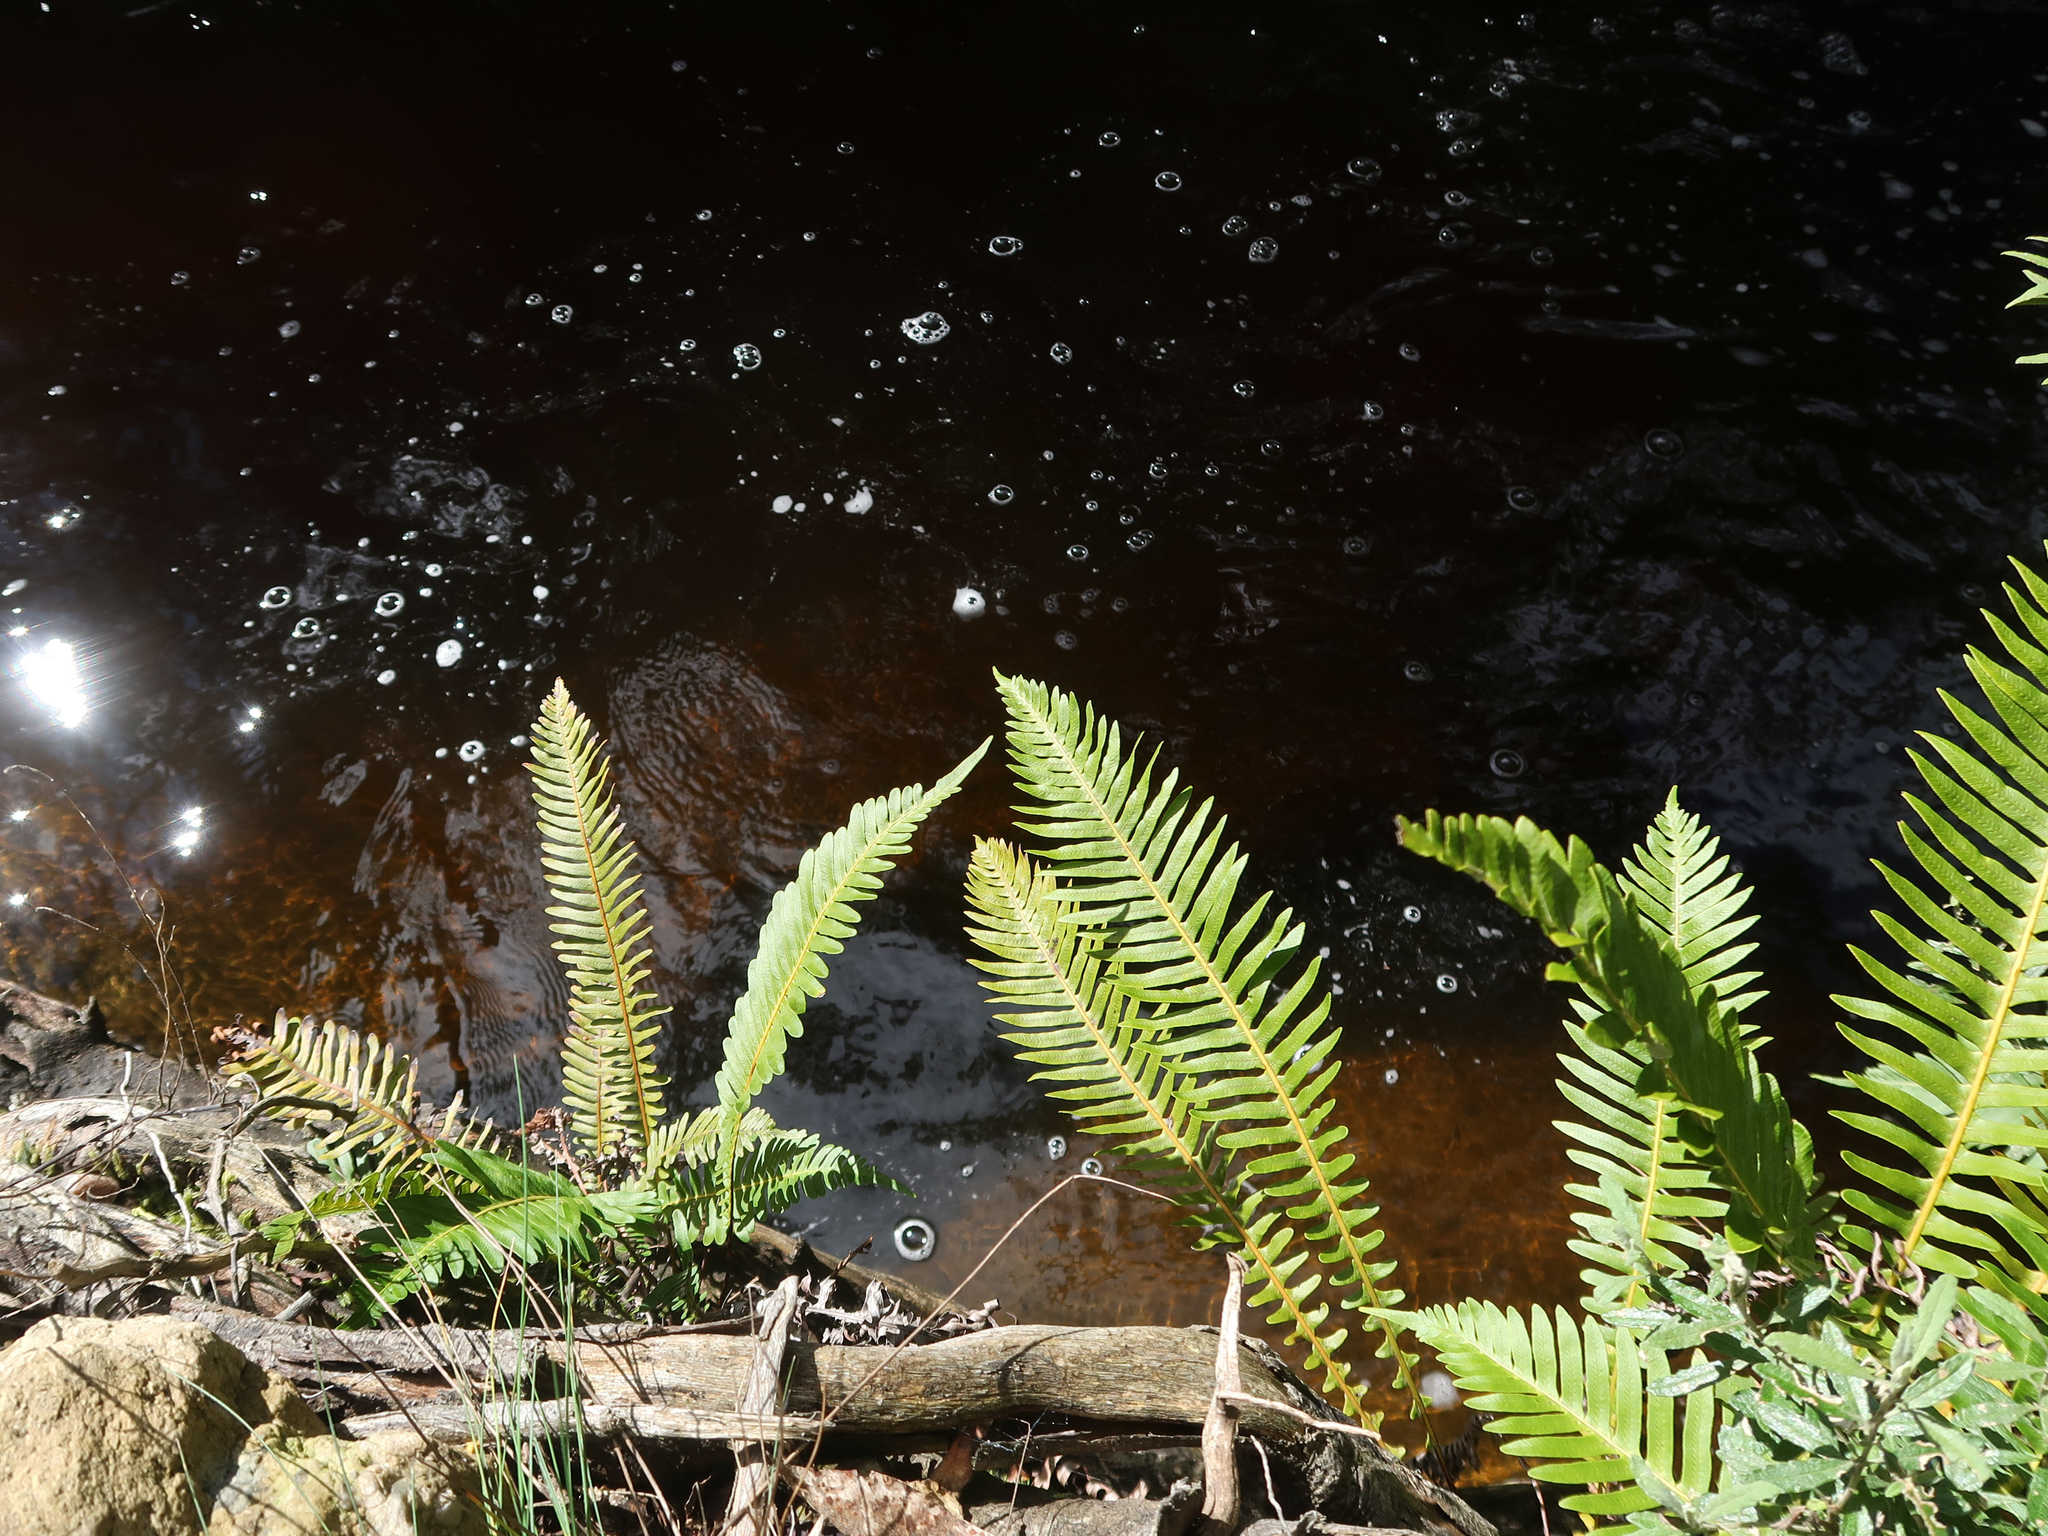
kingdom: Plantae
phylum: Tracheophyta
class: Polypodiopsida
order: Polypodiales
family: Blechnaceae
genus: Lomaria
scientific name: Lomaria nuda
